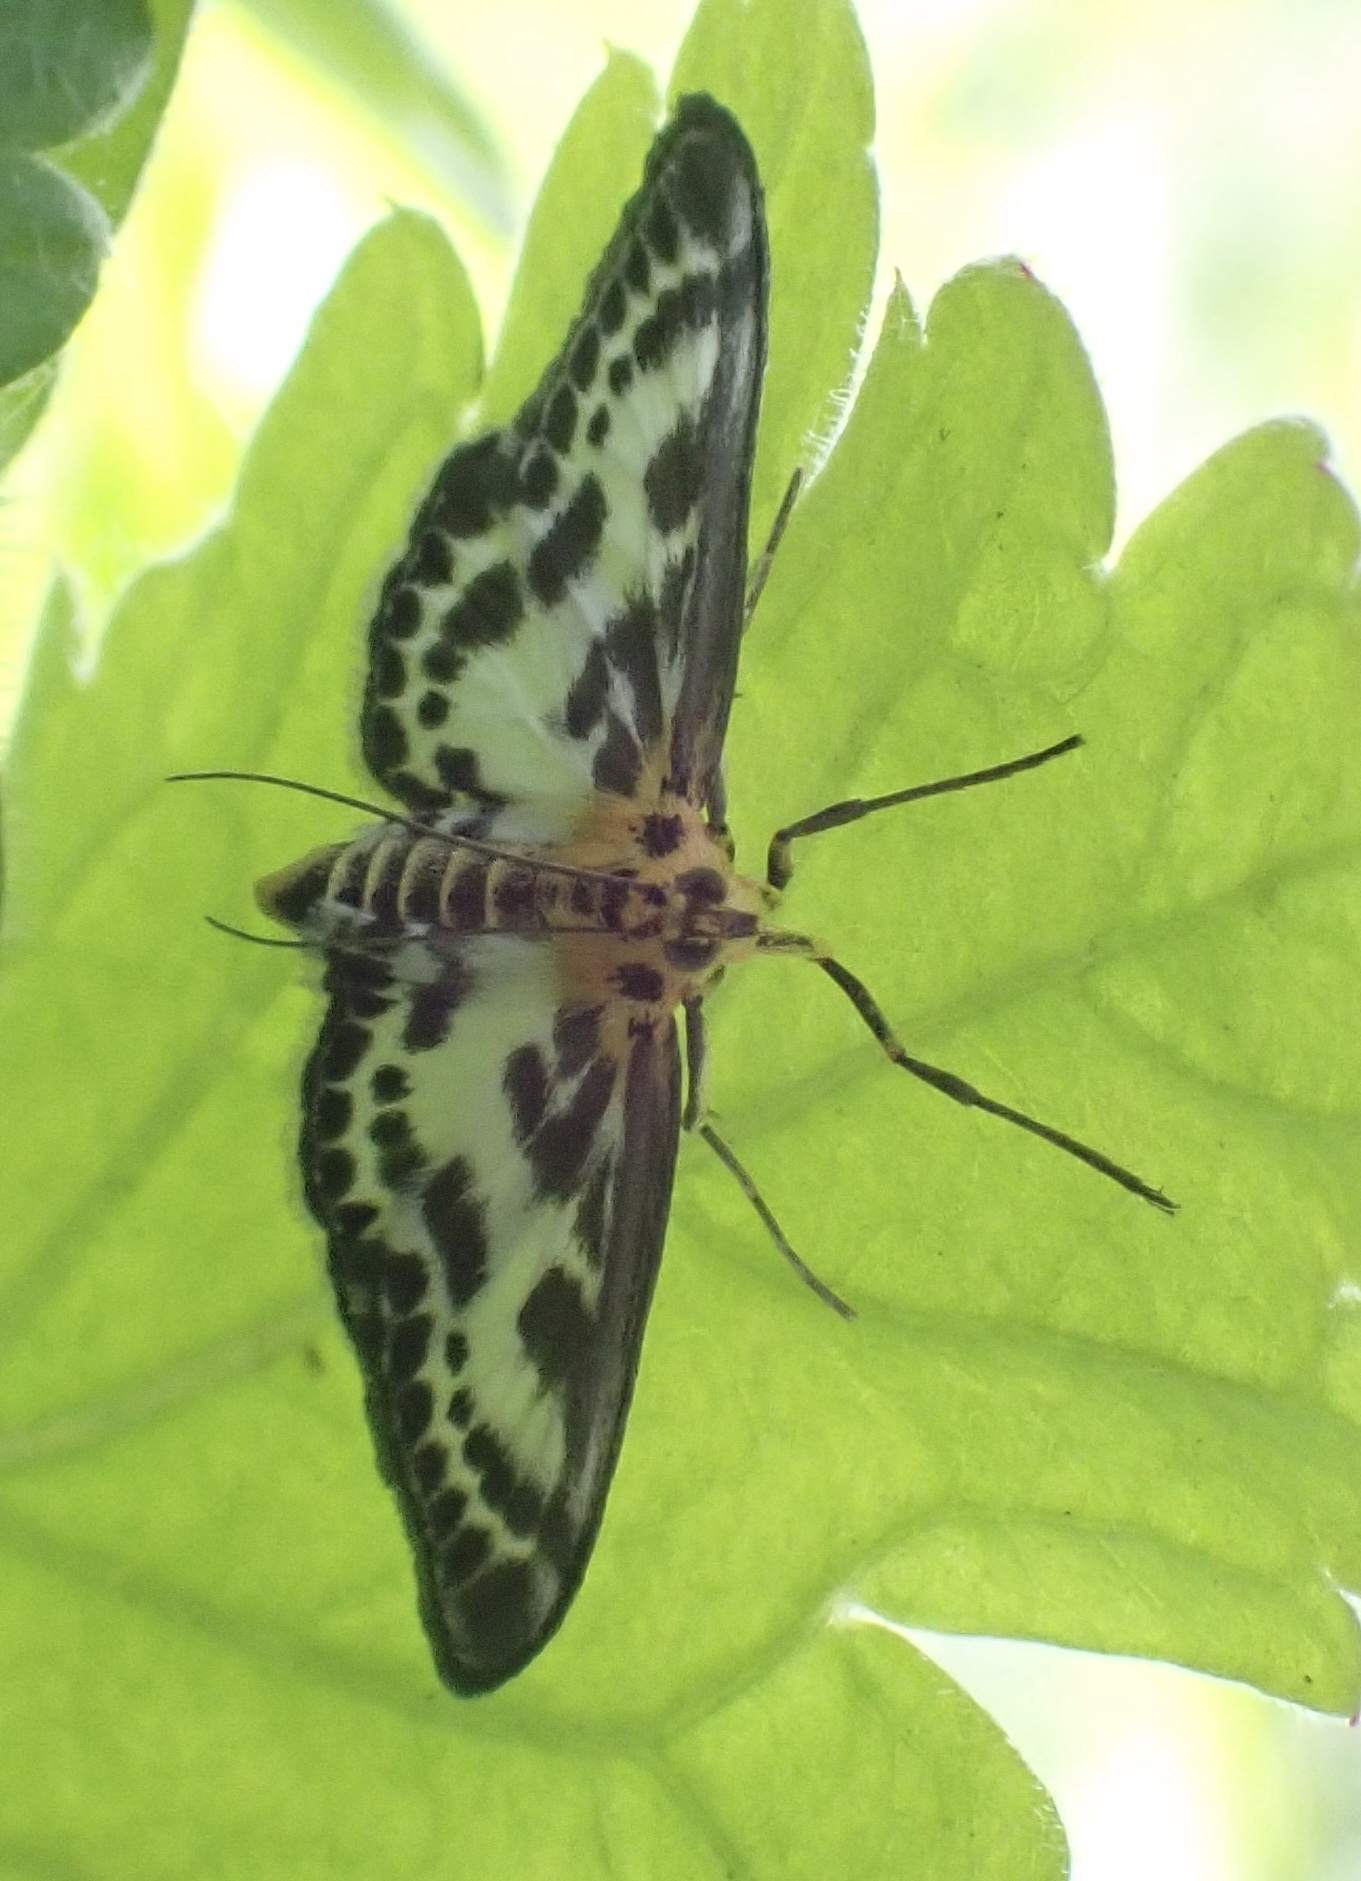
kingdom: Animalia
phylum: Arthropoda
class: Insecta
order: Lepidoptera
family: Crambidae
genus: Anania
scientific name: Anania hortulata
